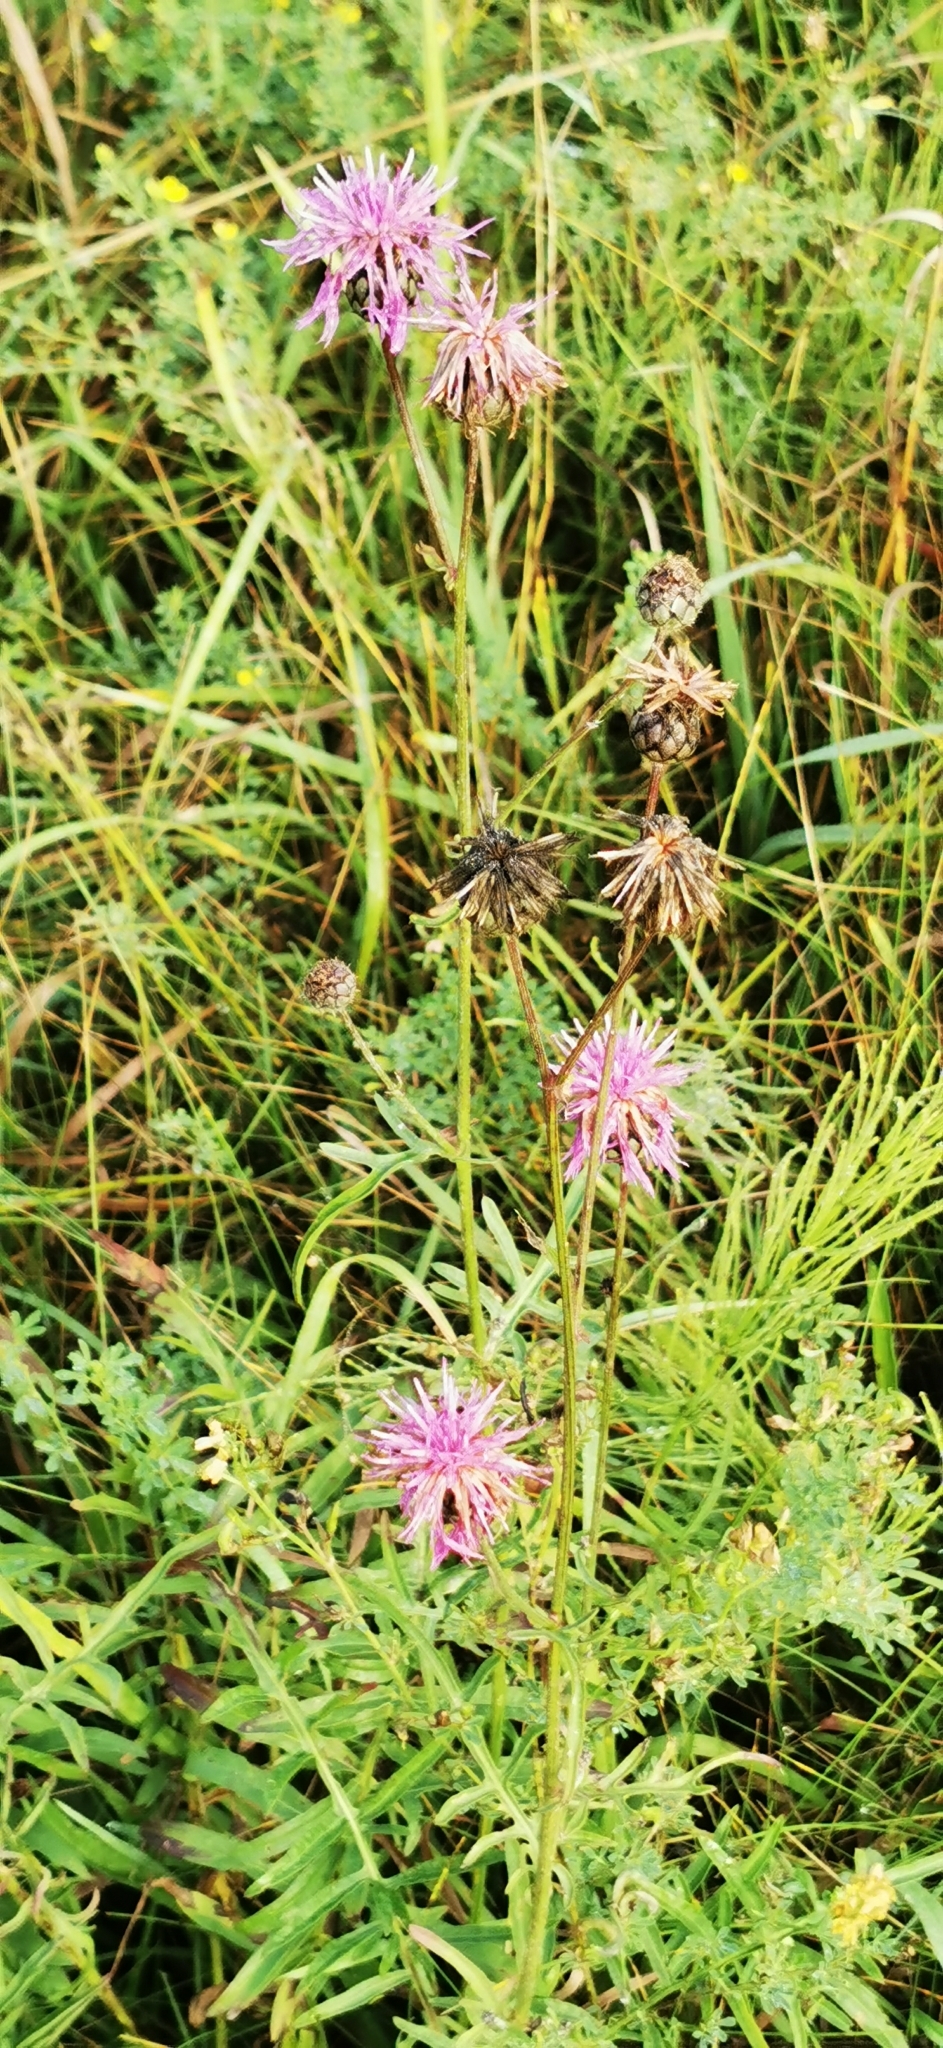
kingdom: Plantae
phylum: Tracheophyta
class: Magnoliopsida
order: Asterales
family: Asteraceae
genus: Centaurea
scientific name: Centaurea scabiosa
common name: Greater knapweed
